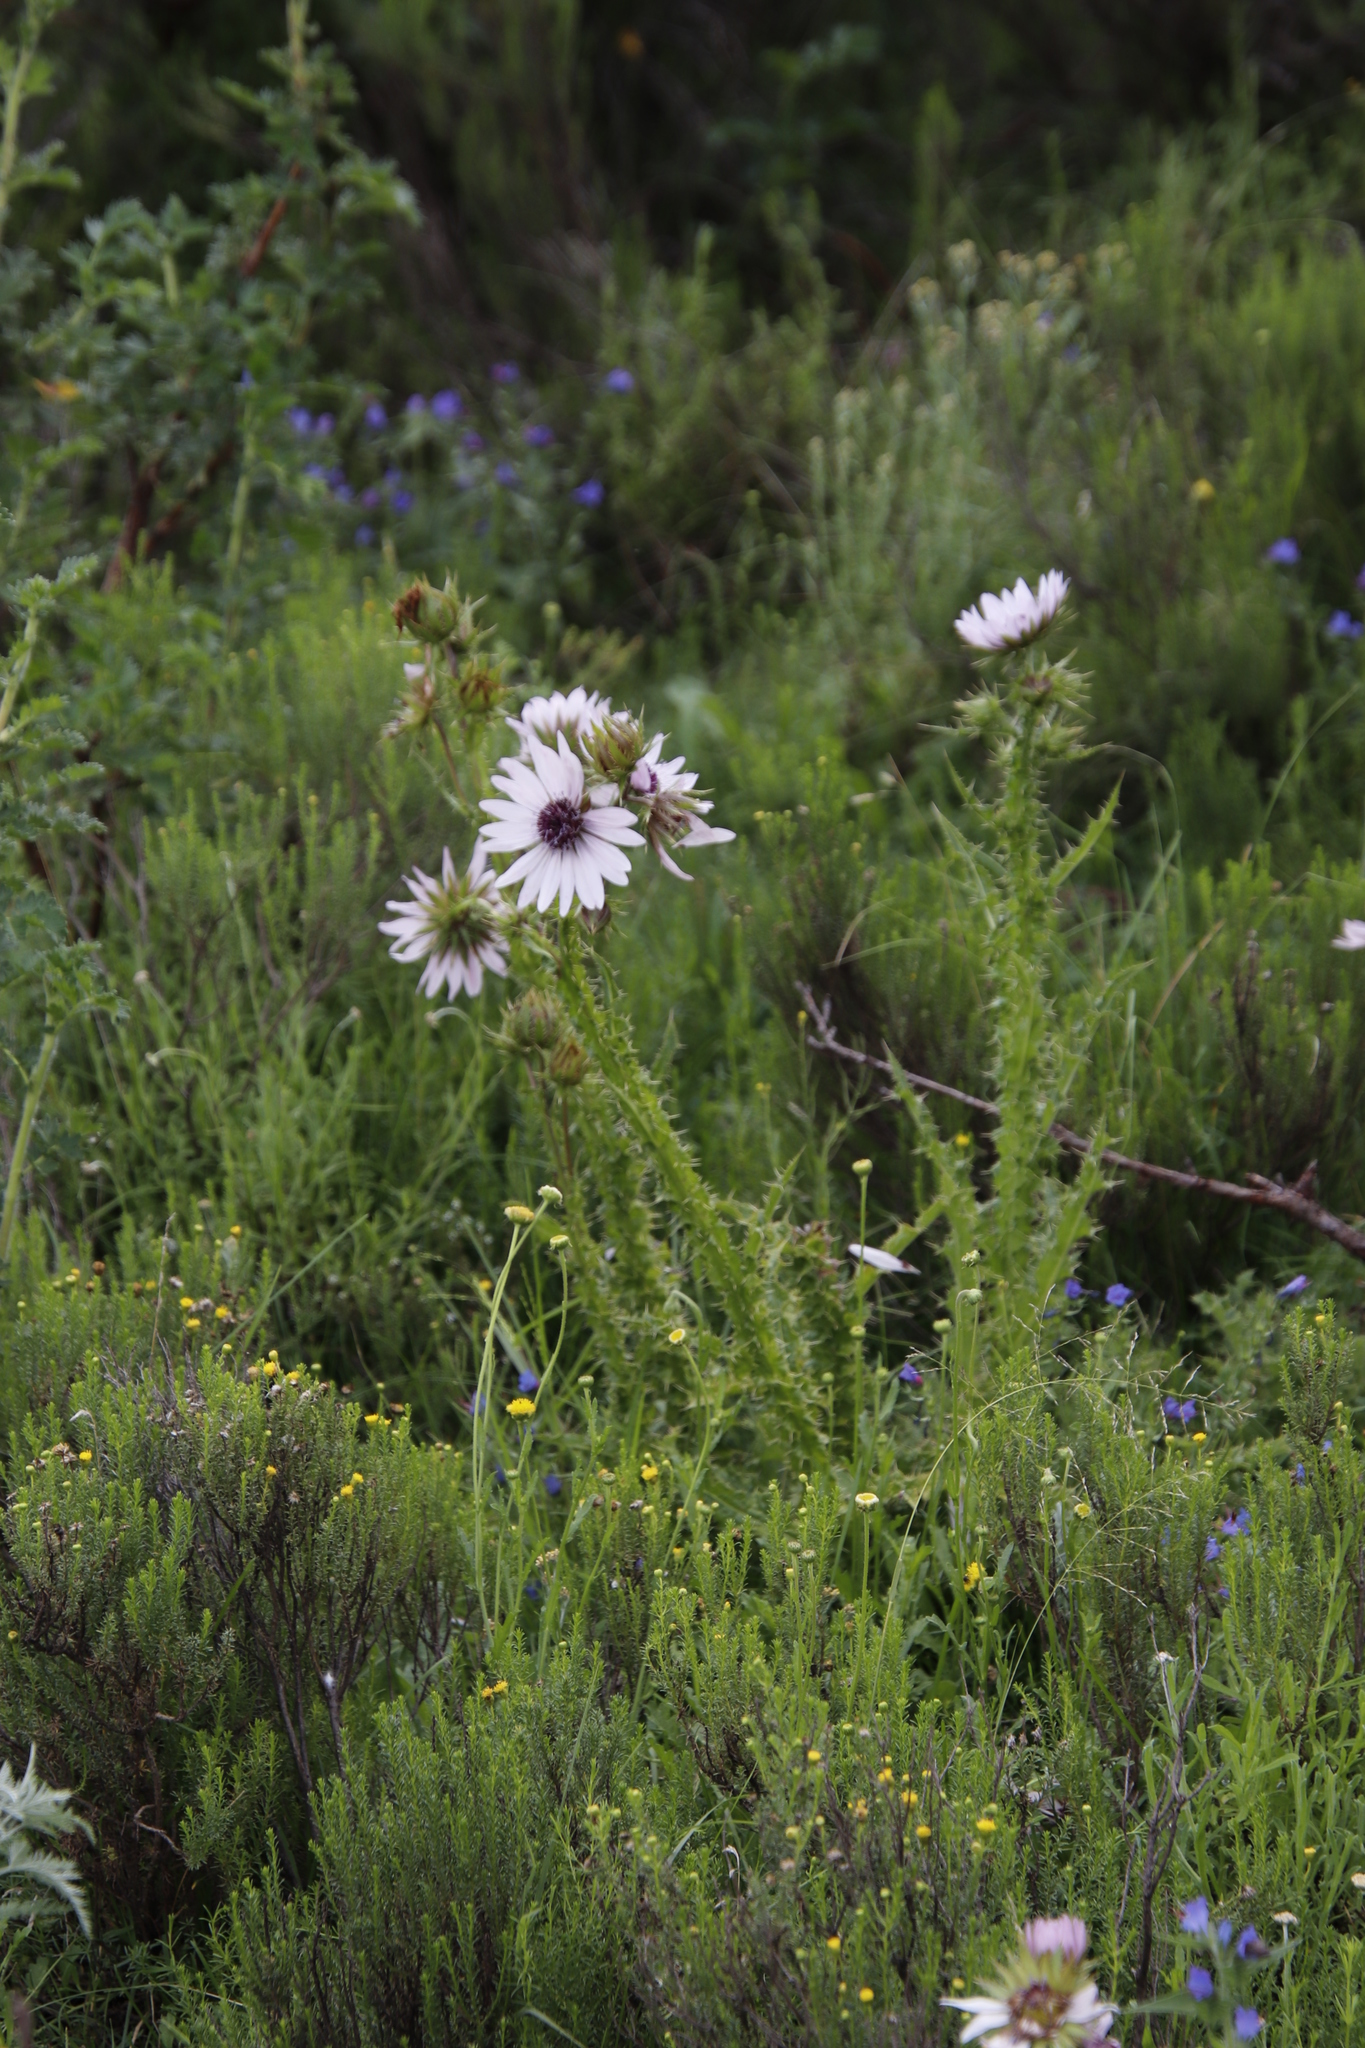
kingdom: Plantae
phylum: Tracheophyta
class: Magnoliopsida
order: Asterales
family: Asteraceae
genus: Berkheya
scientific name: Berkheya purpurea
